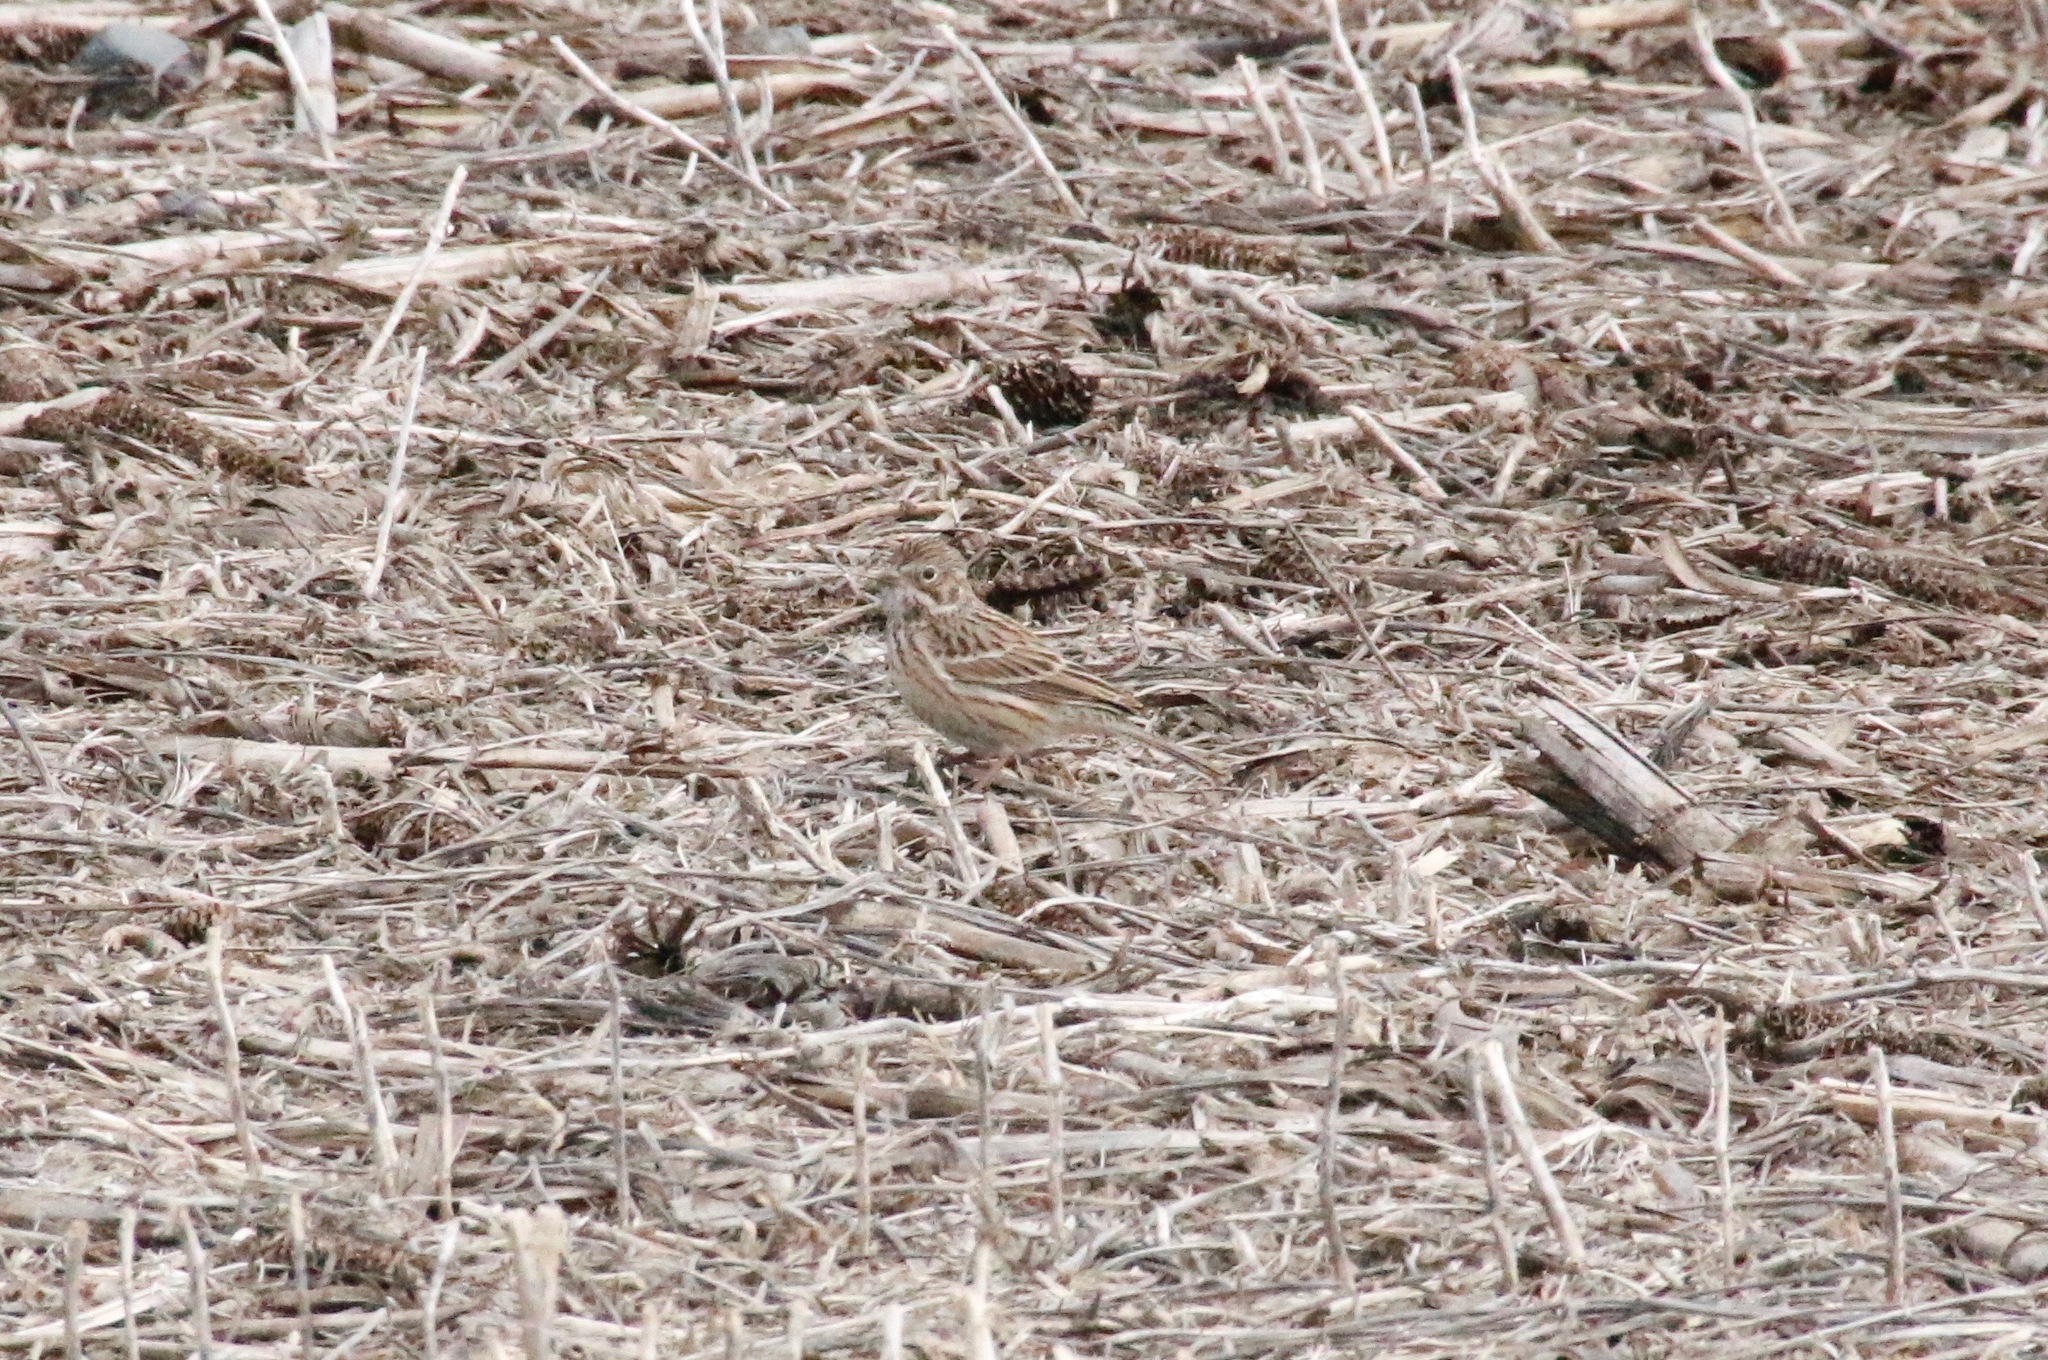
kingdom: Animalia
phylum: Chordata
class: Aves
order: Passeriformes
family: Passerellidae
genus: Pooecetes
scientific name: Pooecetes gramineus
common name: Vesper sparrow
